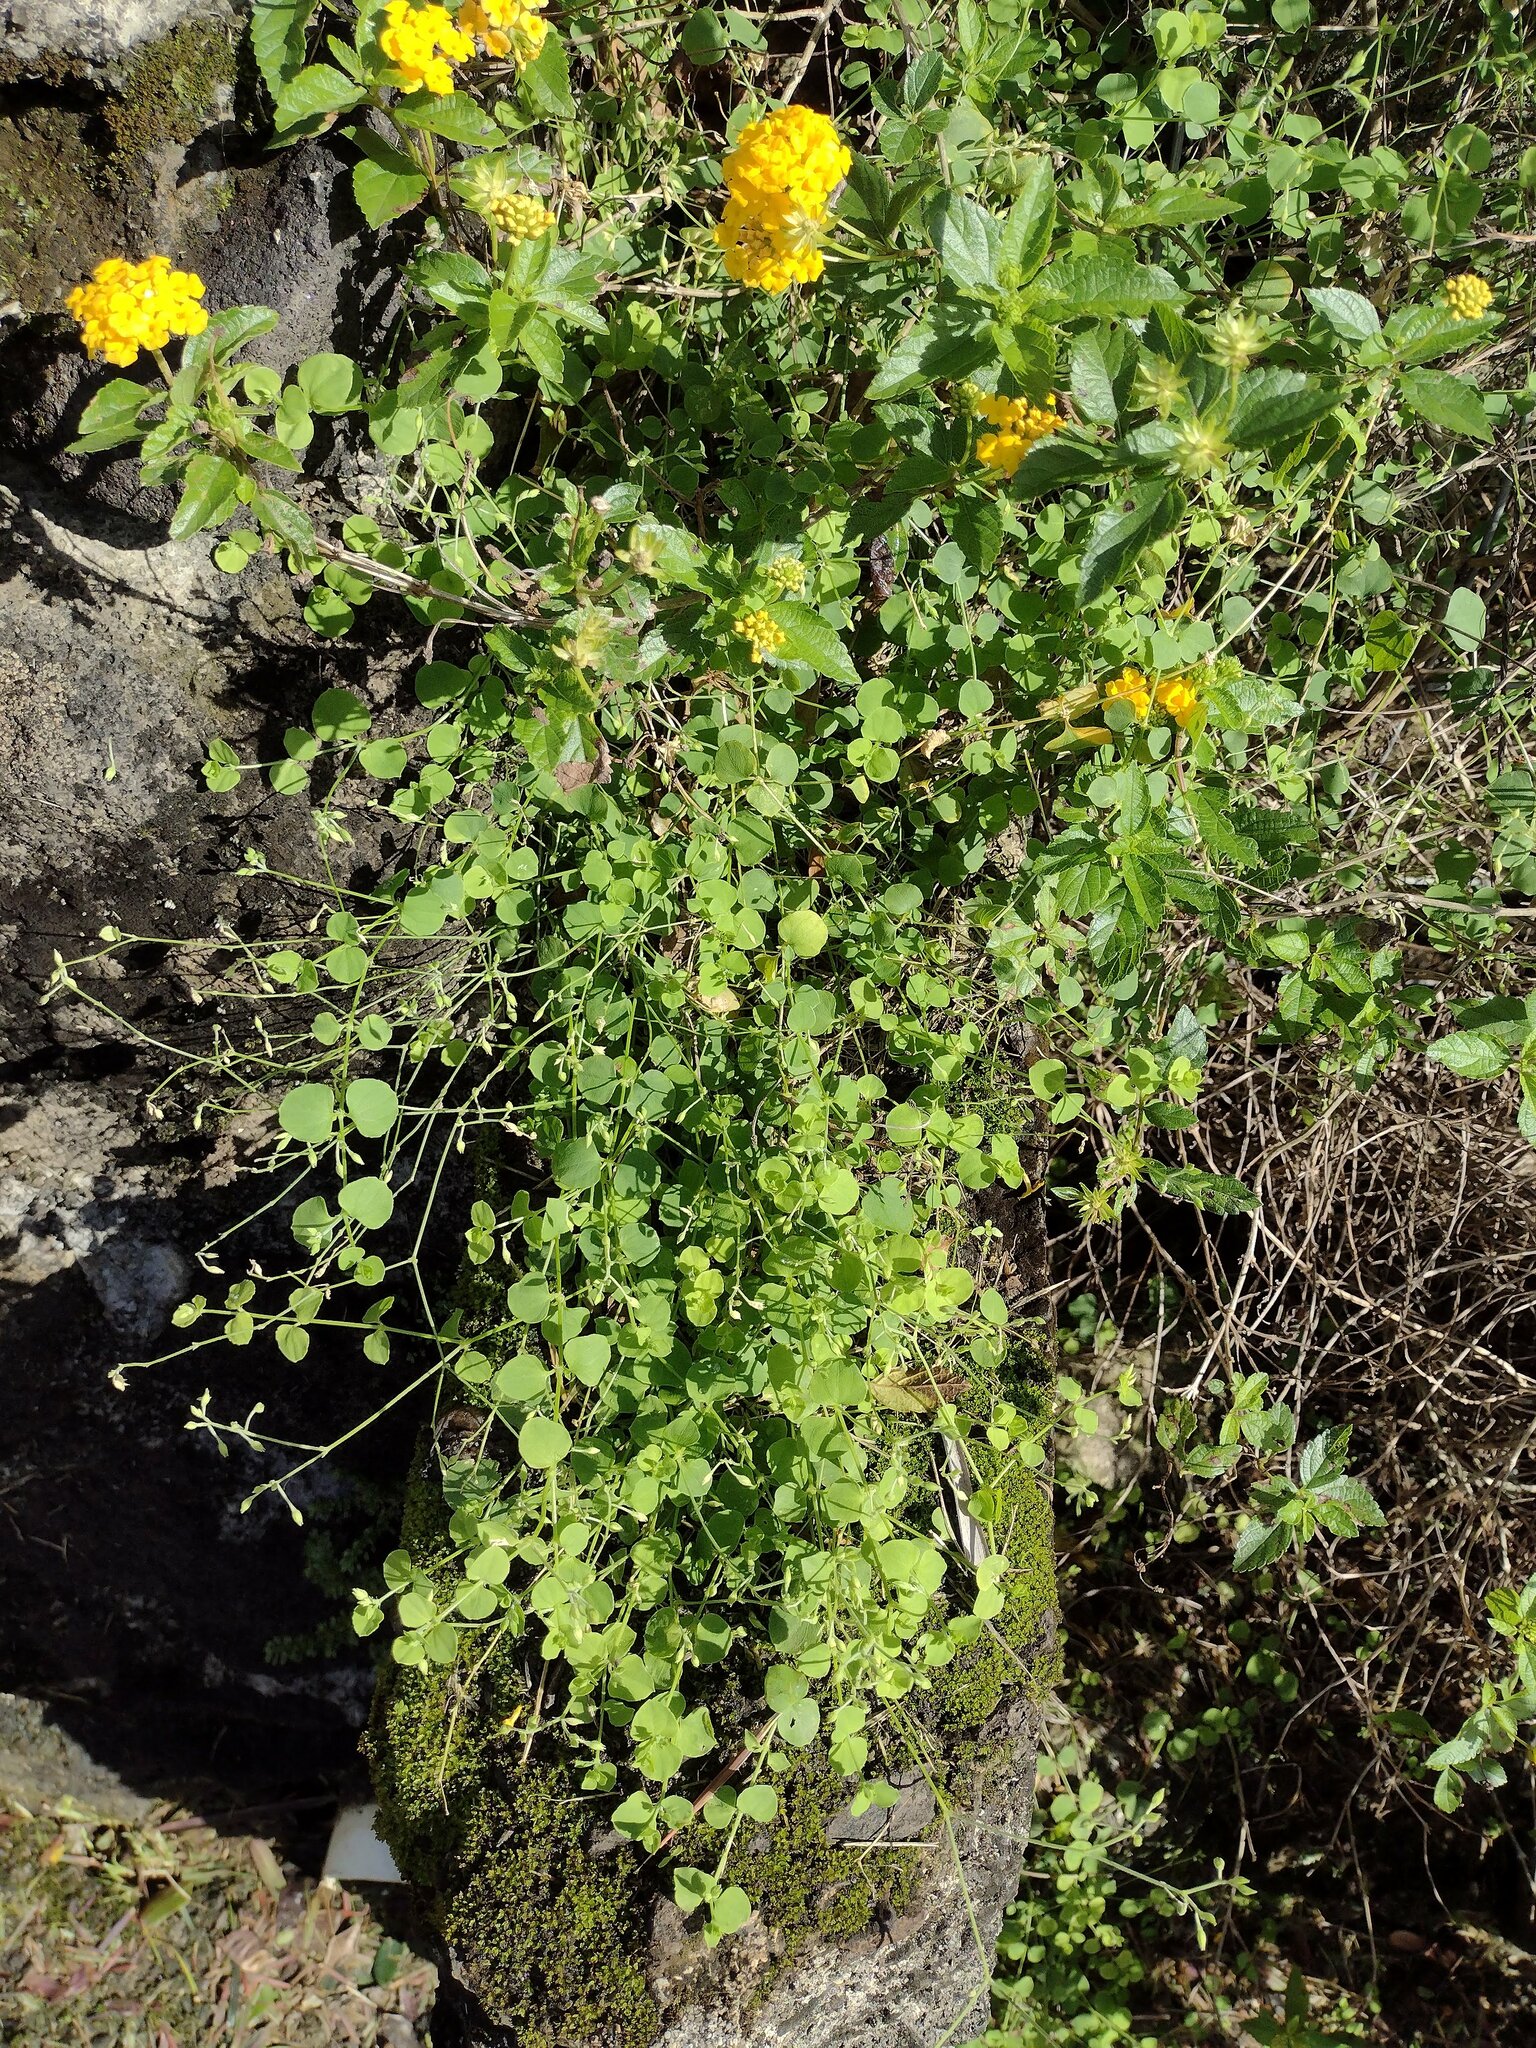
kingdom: Plantae
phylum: Tracheophyta
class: Magnoliopsida
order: Caryophyllales
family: Caryophyllaceae
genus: Drymaria
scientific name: Drymaria cordata
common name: Whitesnow
